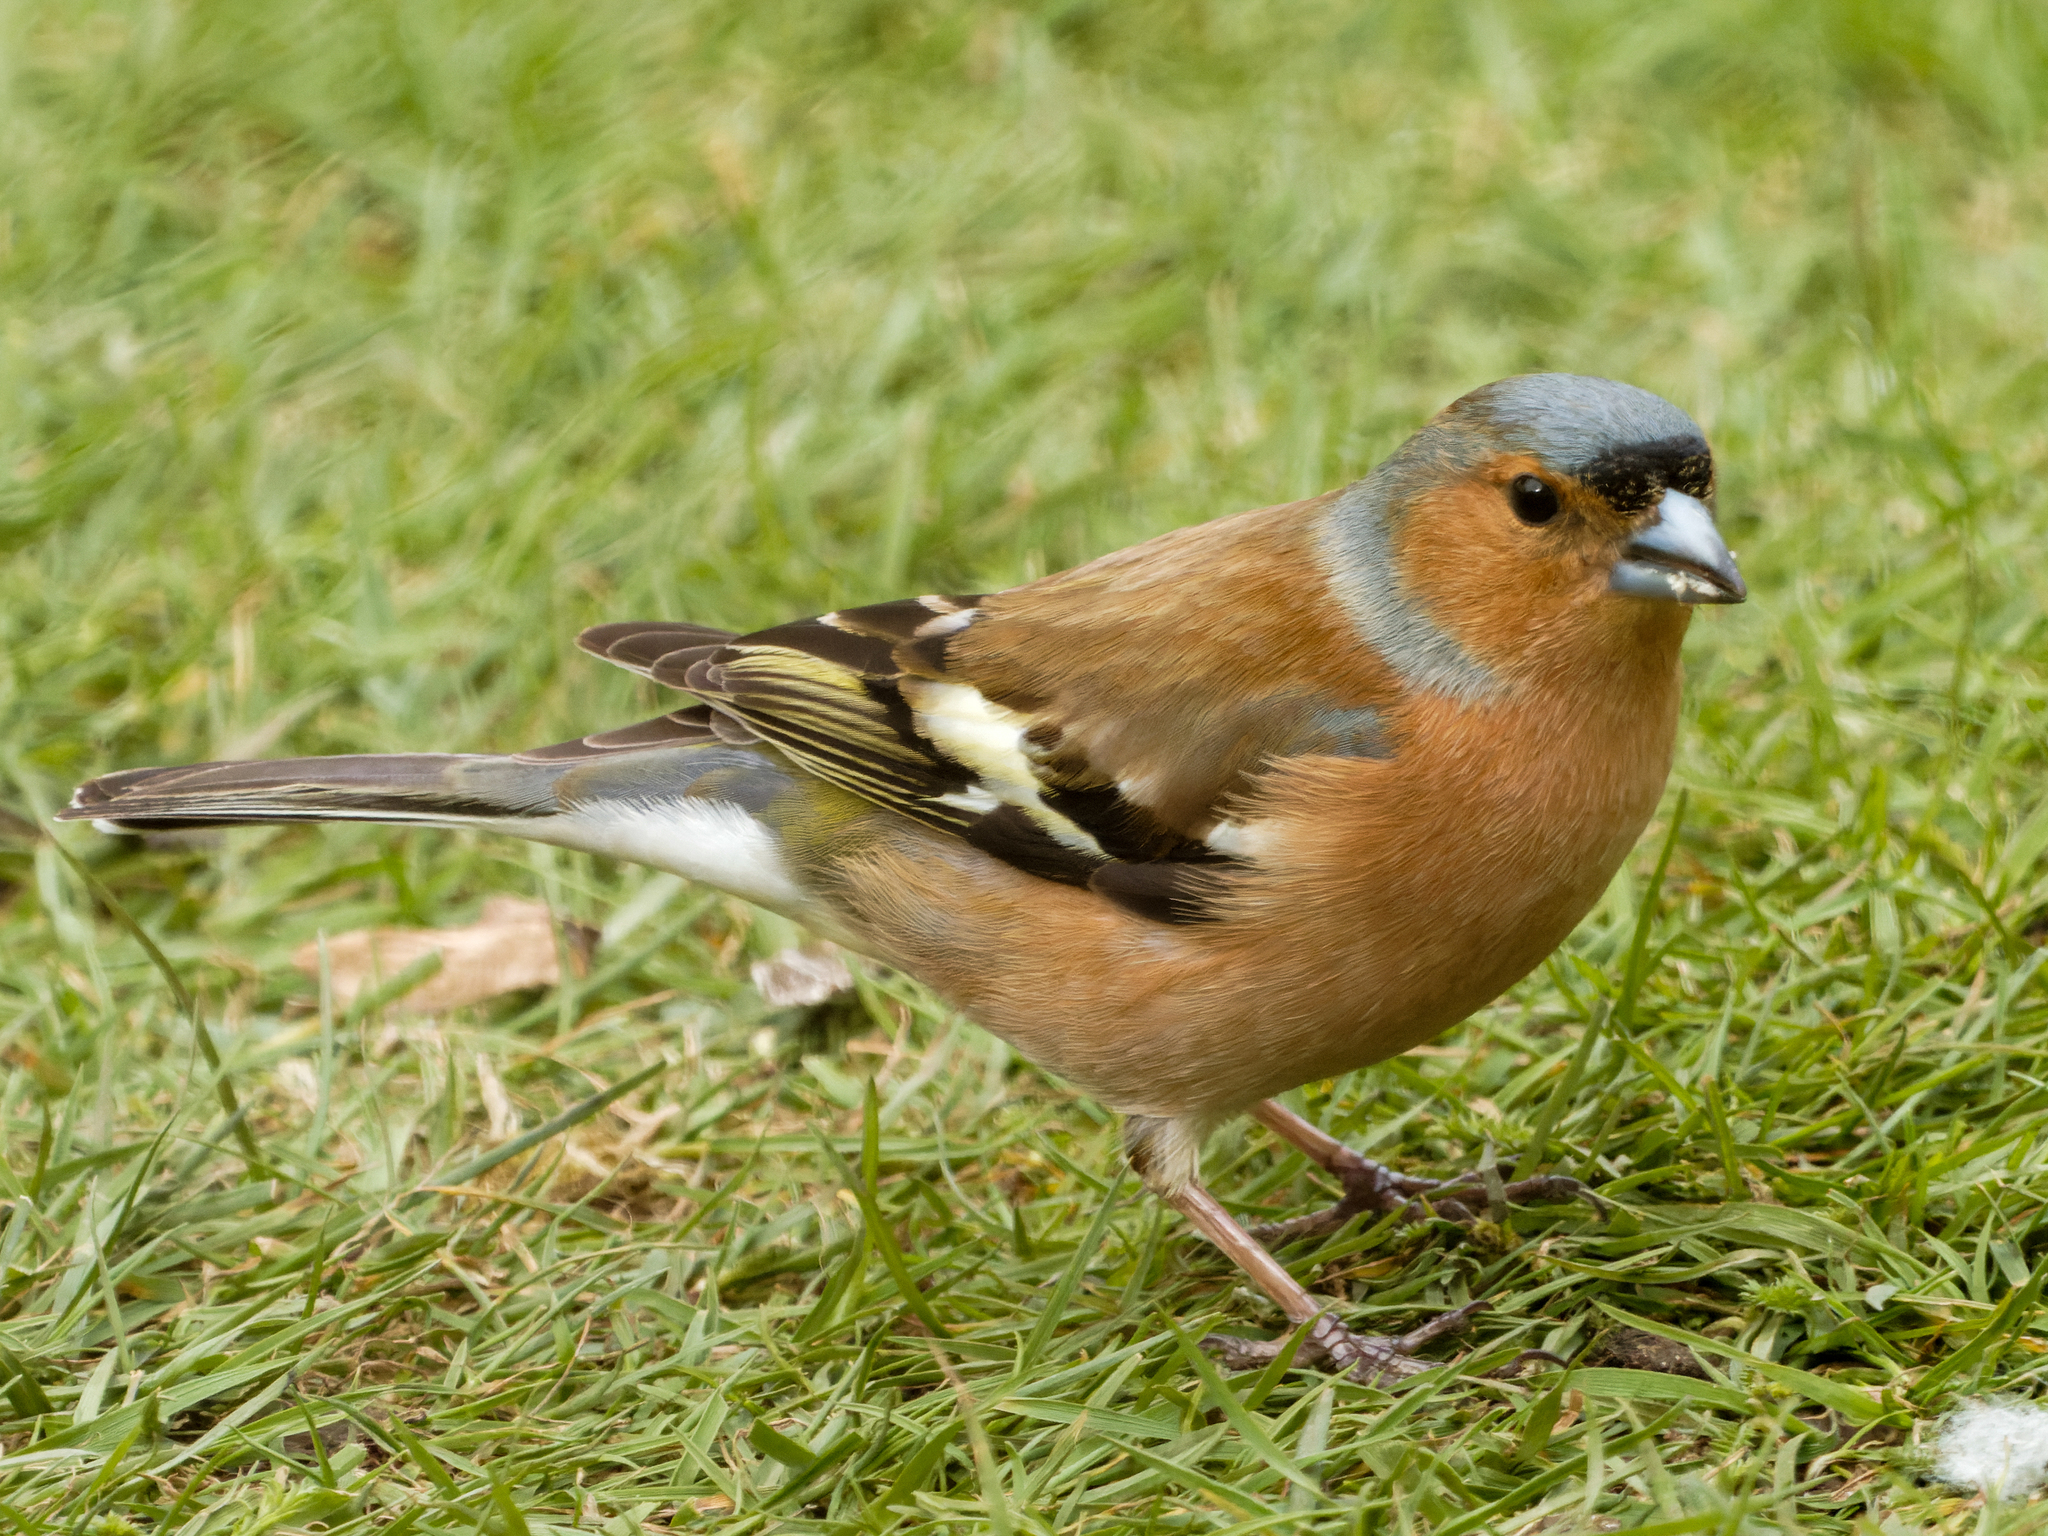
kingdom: Animalia
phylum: Chordata
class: Aves
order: Passeriformes
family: Fringillidae
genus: Fringilla
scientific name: Fringilla coelebs
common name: Common chaffinch
